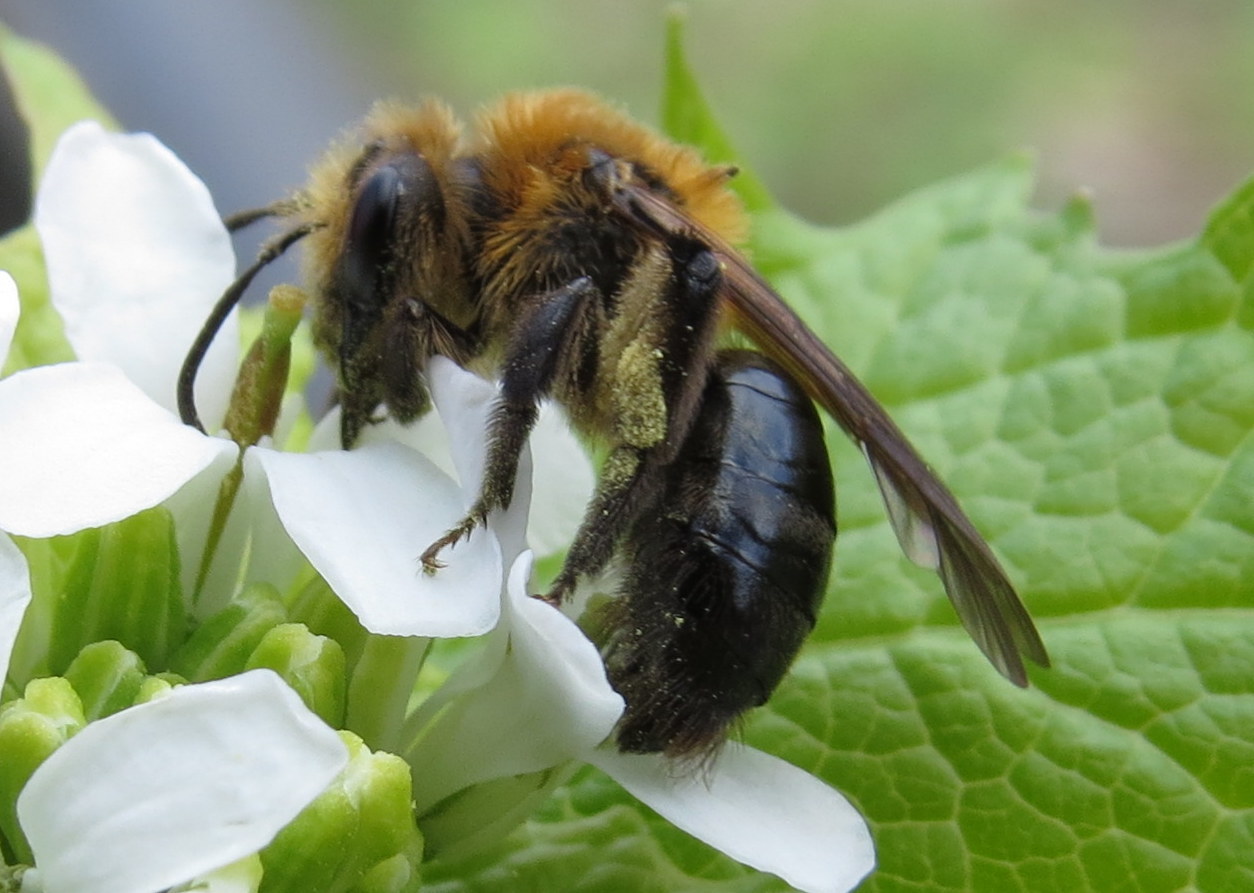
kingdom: Animalia
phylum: Arthropoda
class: Insecta
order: Hymenoptera
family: Andrenidae
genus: Andrena
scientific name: Andrena dunningi
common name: Dunning's miner
